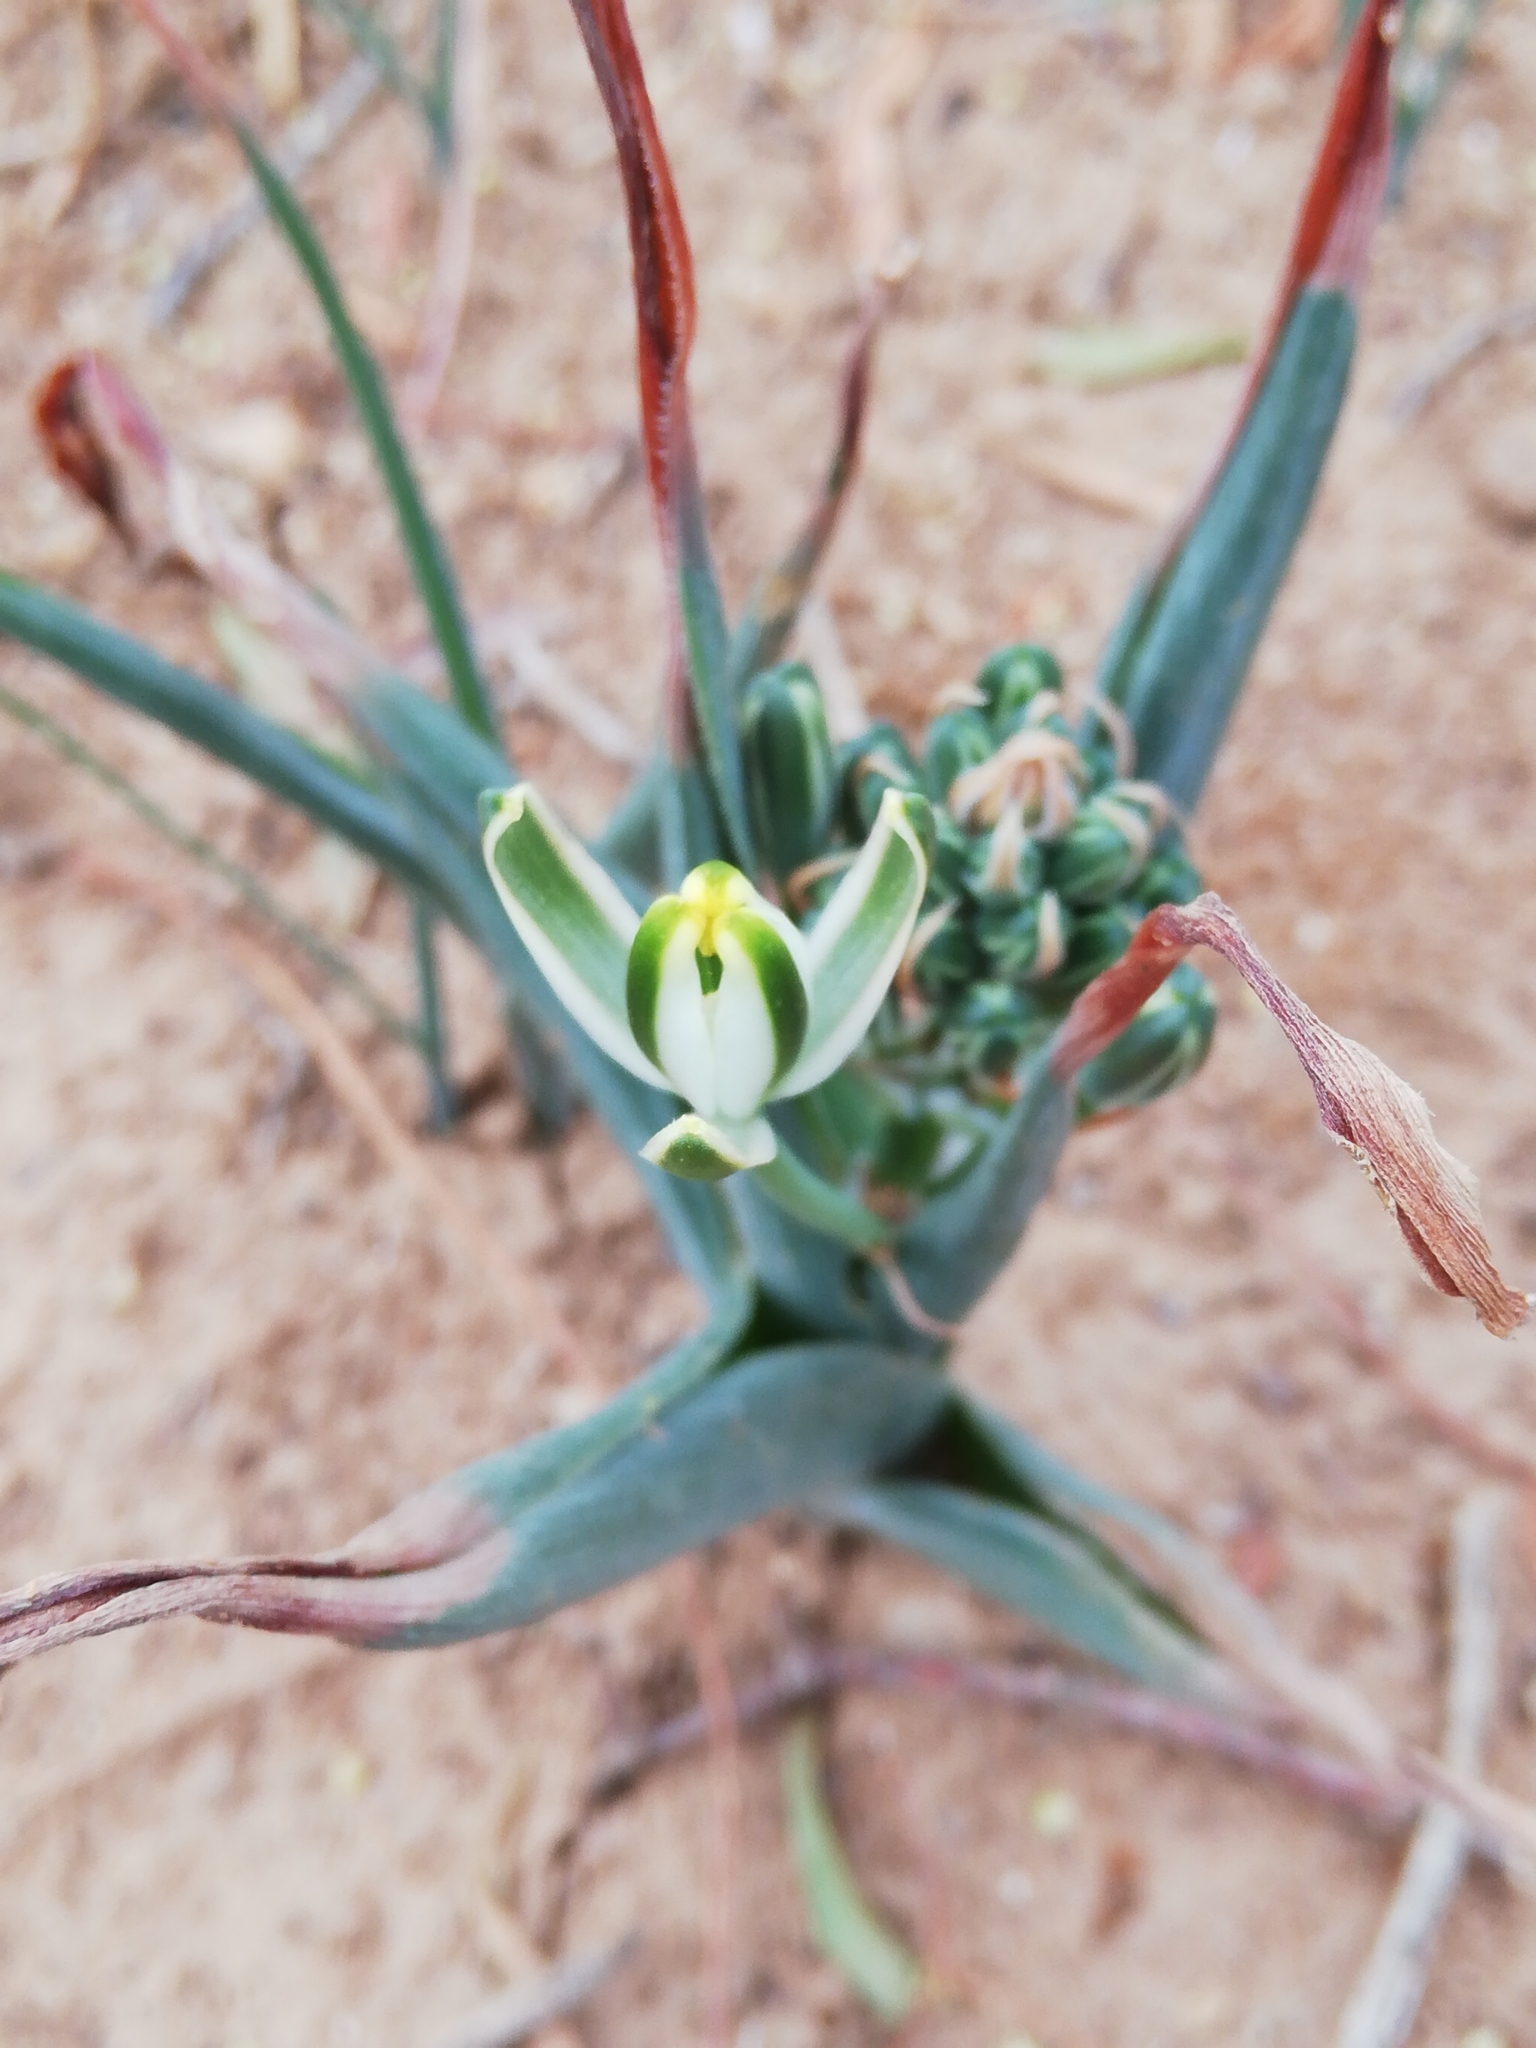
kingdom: Plantae
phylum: Tracheophyta
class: Liliopsida
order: Asparagales
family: Asparagaceae
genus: Albuca
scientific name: Albuca setosa
